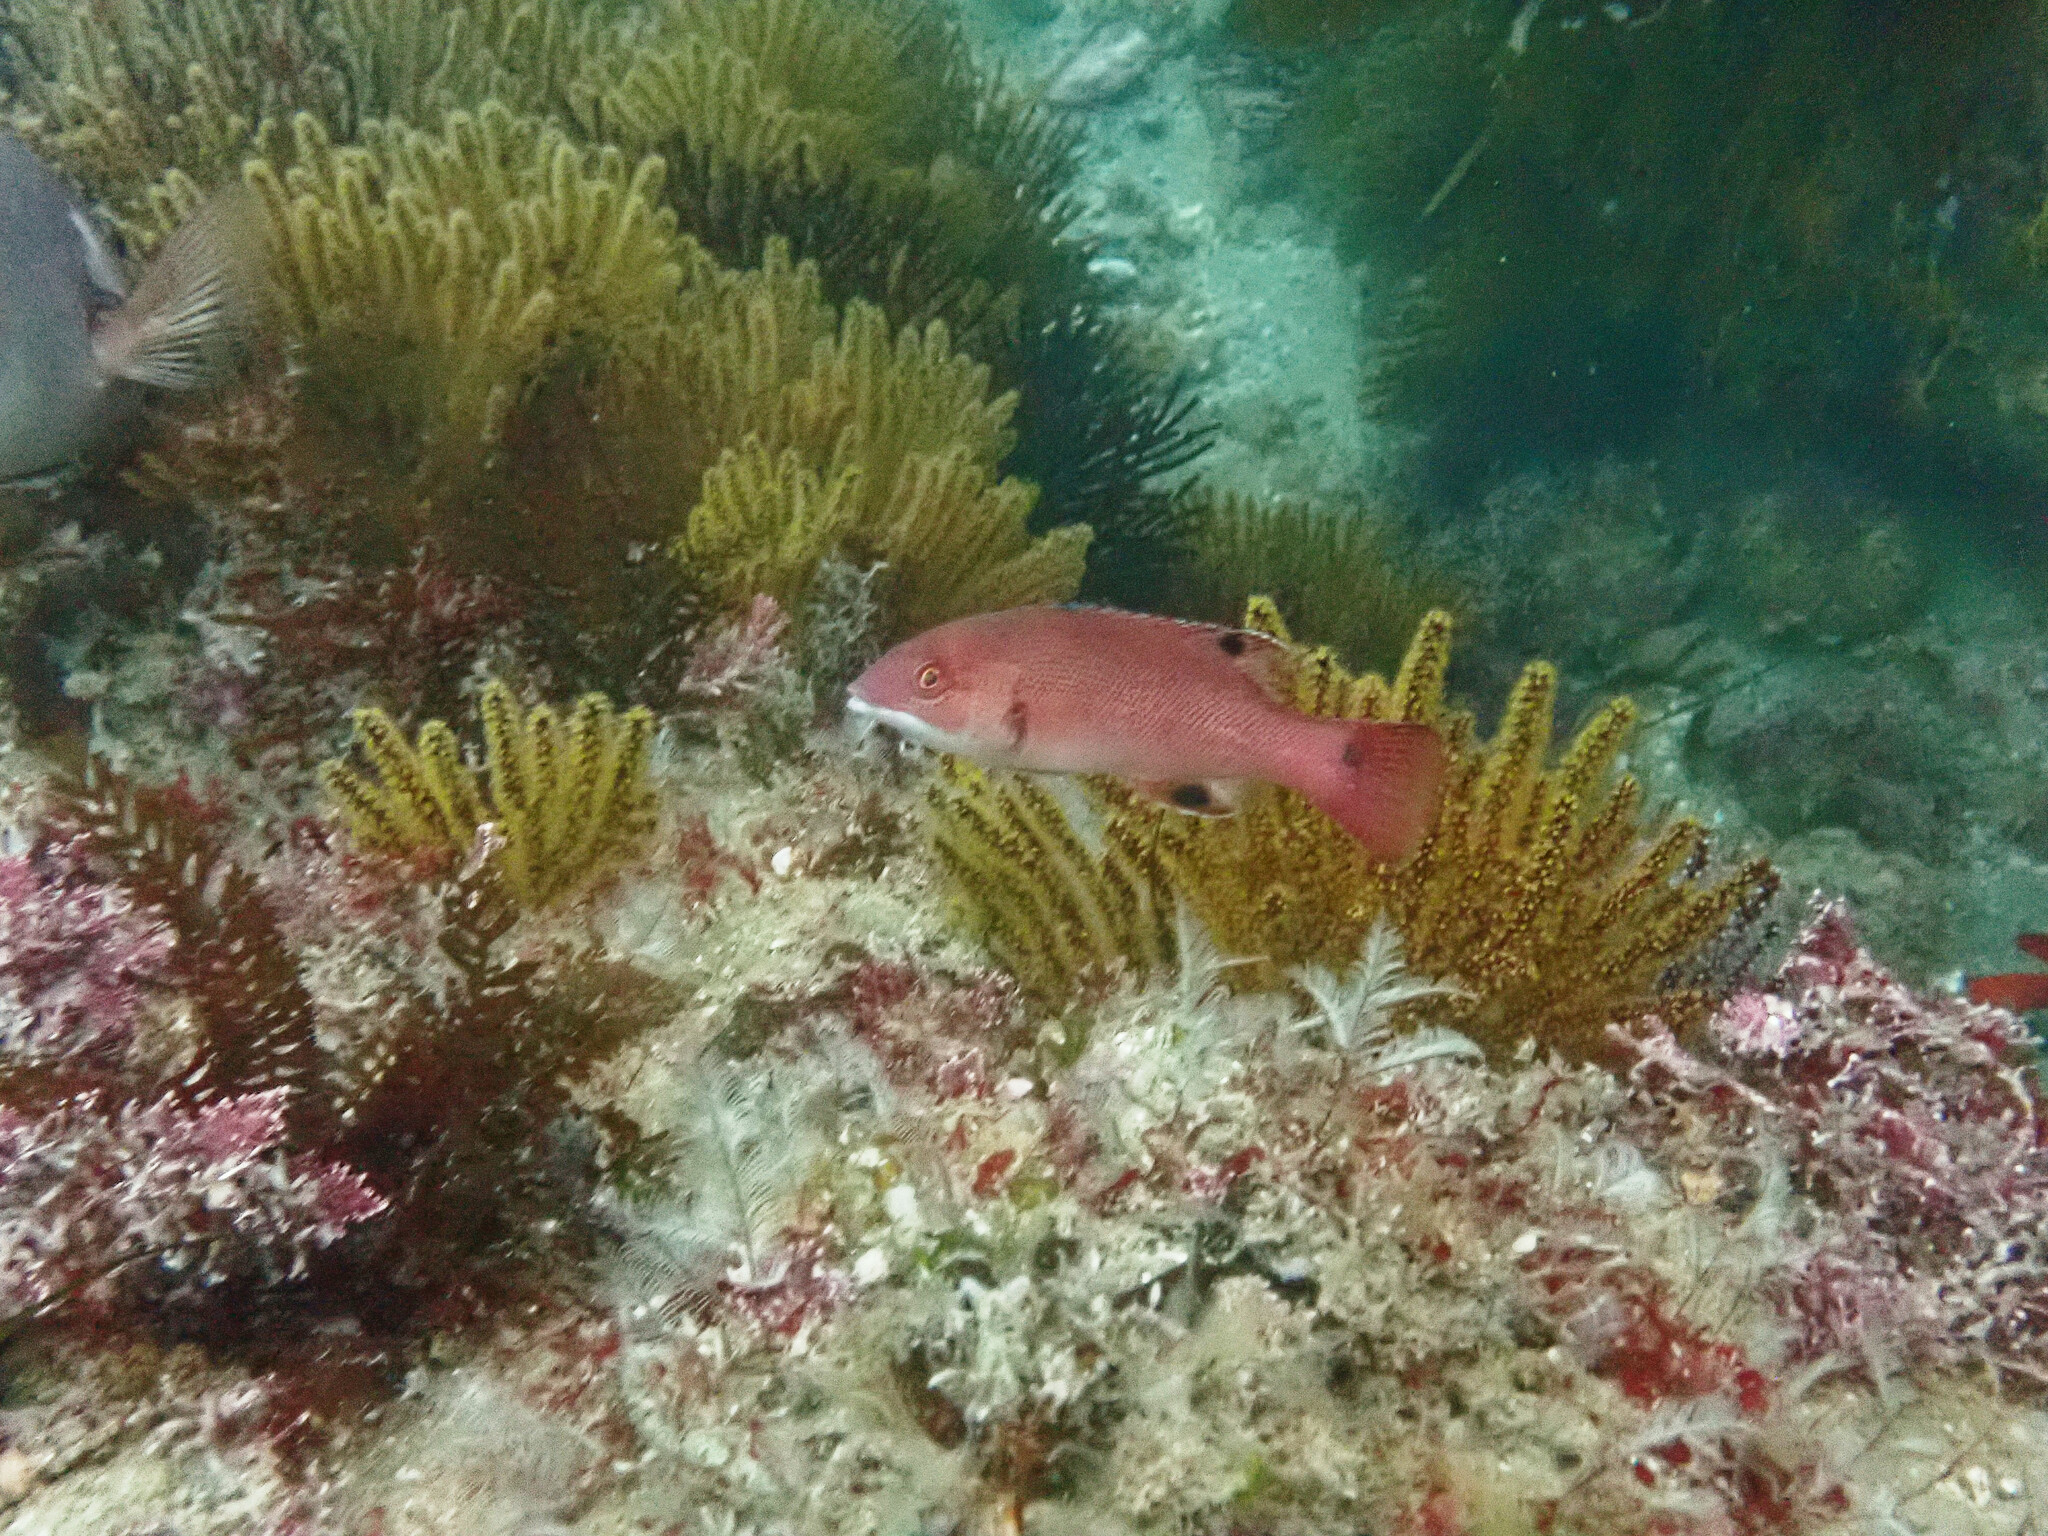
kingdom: Animalia
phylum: Chordata
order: Perciformes
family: Labridae
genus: Semicossyphus
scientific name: Semicossyphus pulcher
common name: California sheephead
